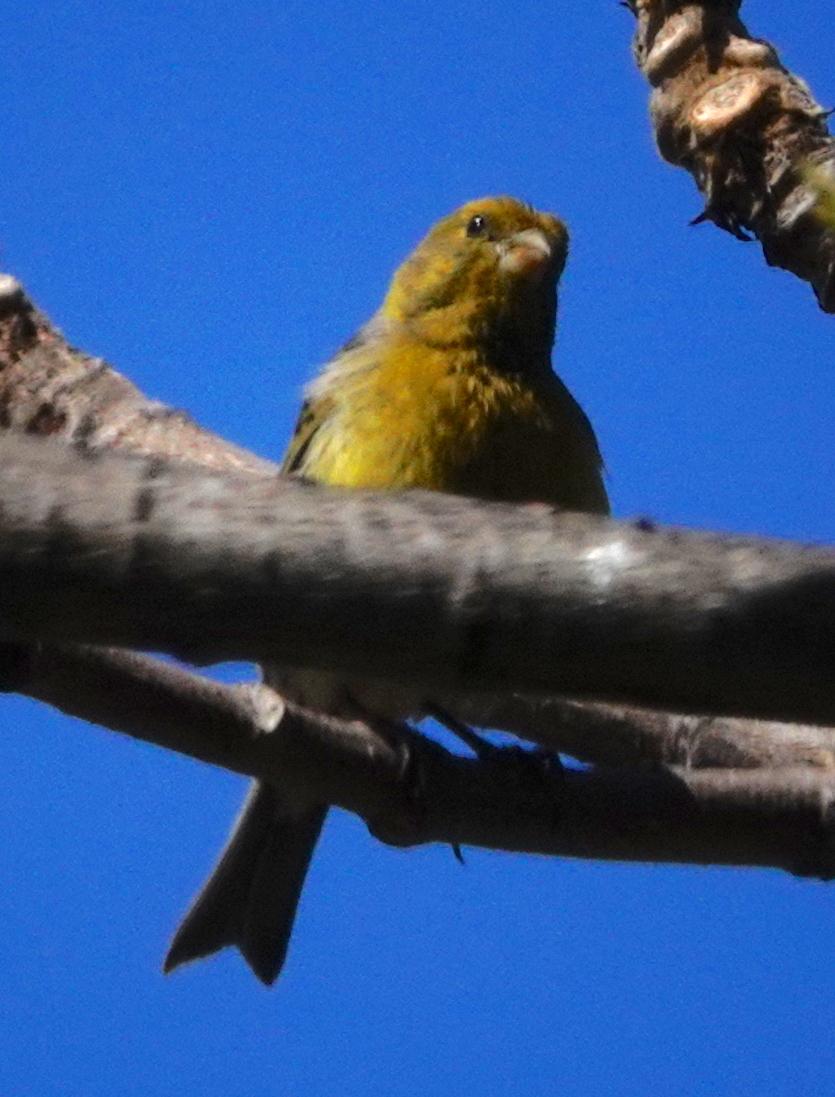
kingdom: Animalia
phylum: Chordata
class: Aves
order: Passeriformes
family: Fringillidae
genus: Serinus
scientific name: Serinus canaria
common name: Atlantic canary
